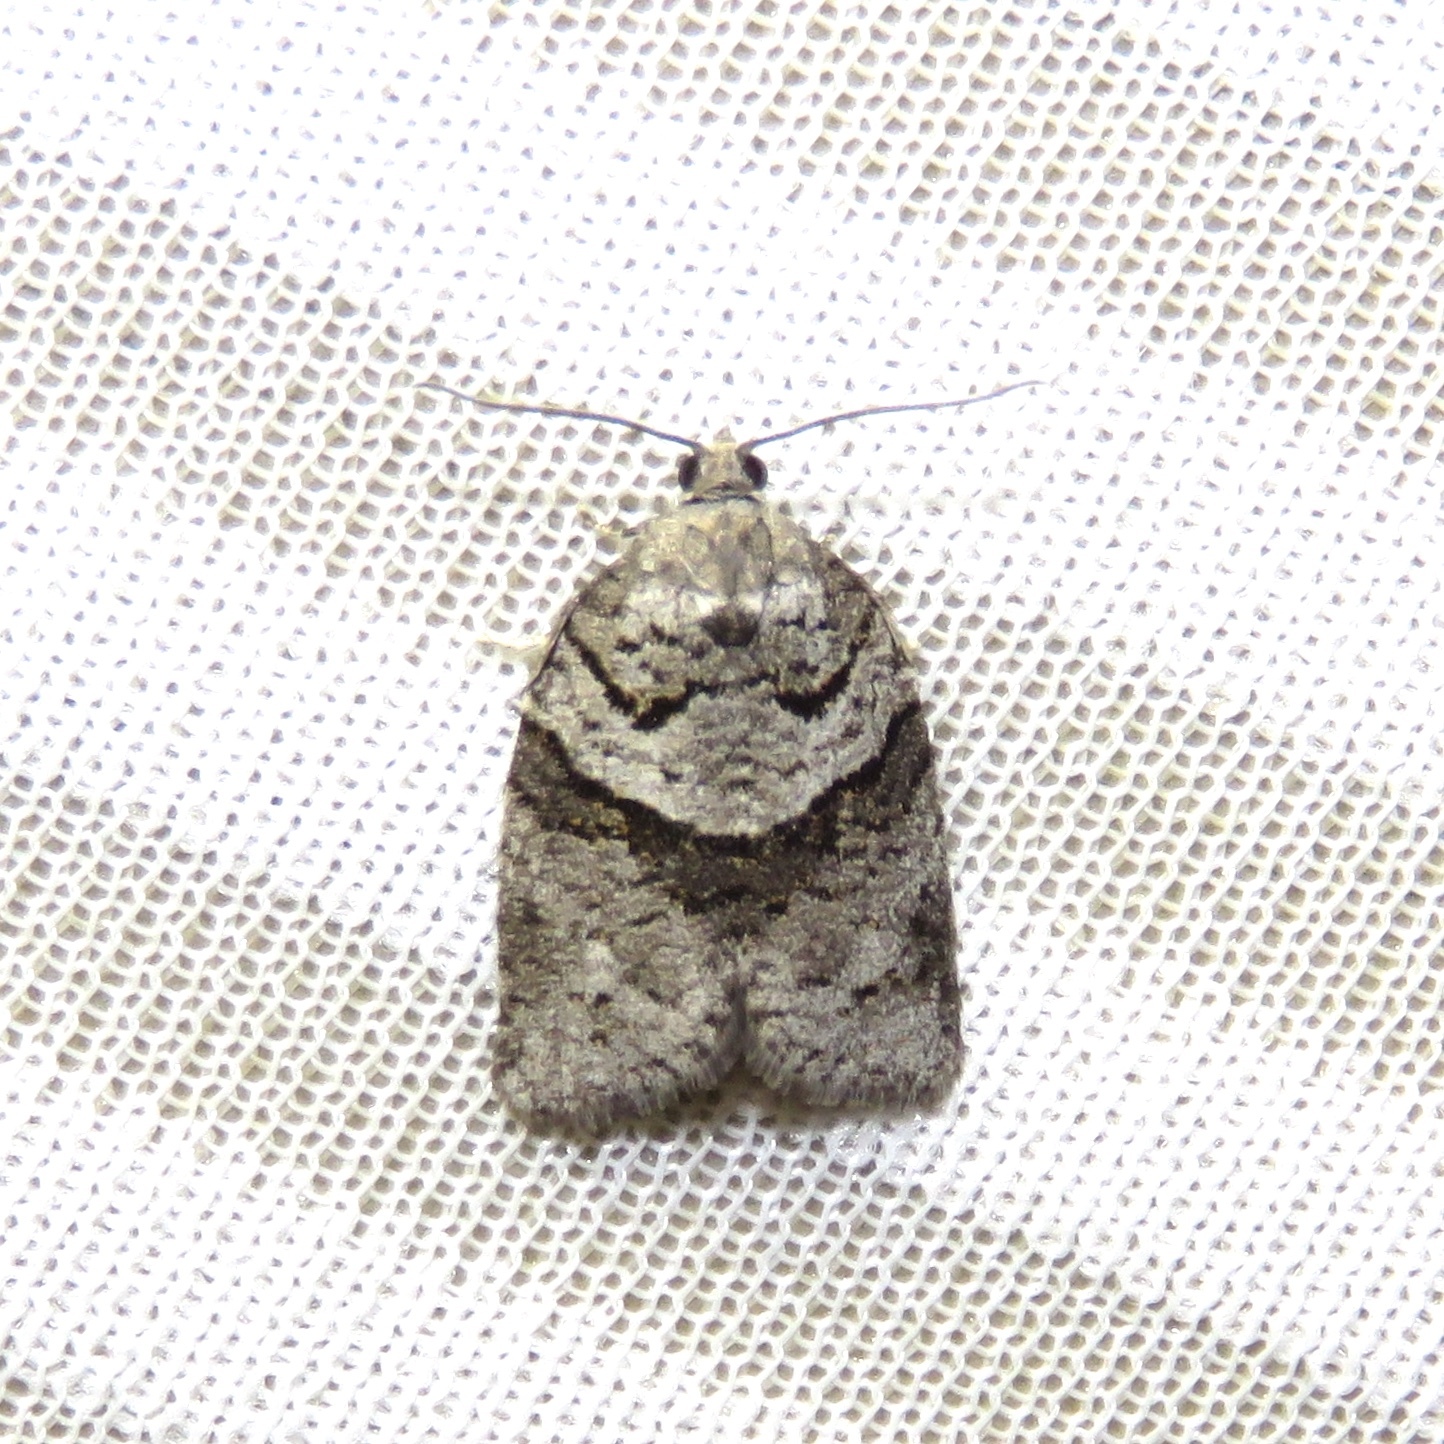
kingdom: Animalia
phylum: Arthropoda
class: Insecta
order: Lepidoptera
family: Tortricidae
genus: Syndemis
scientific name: Syndemis afflictana
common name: Gray leafroller moth
